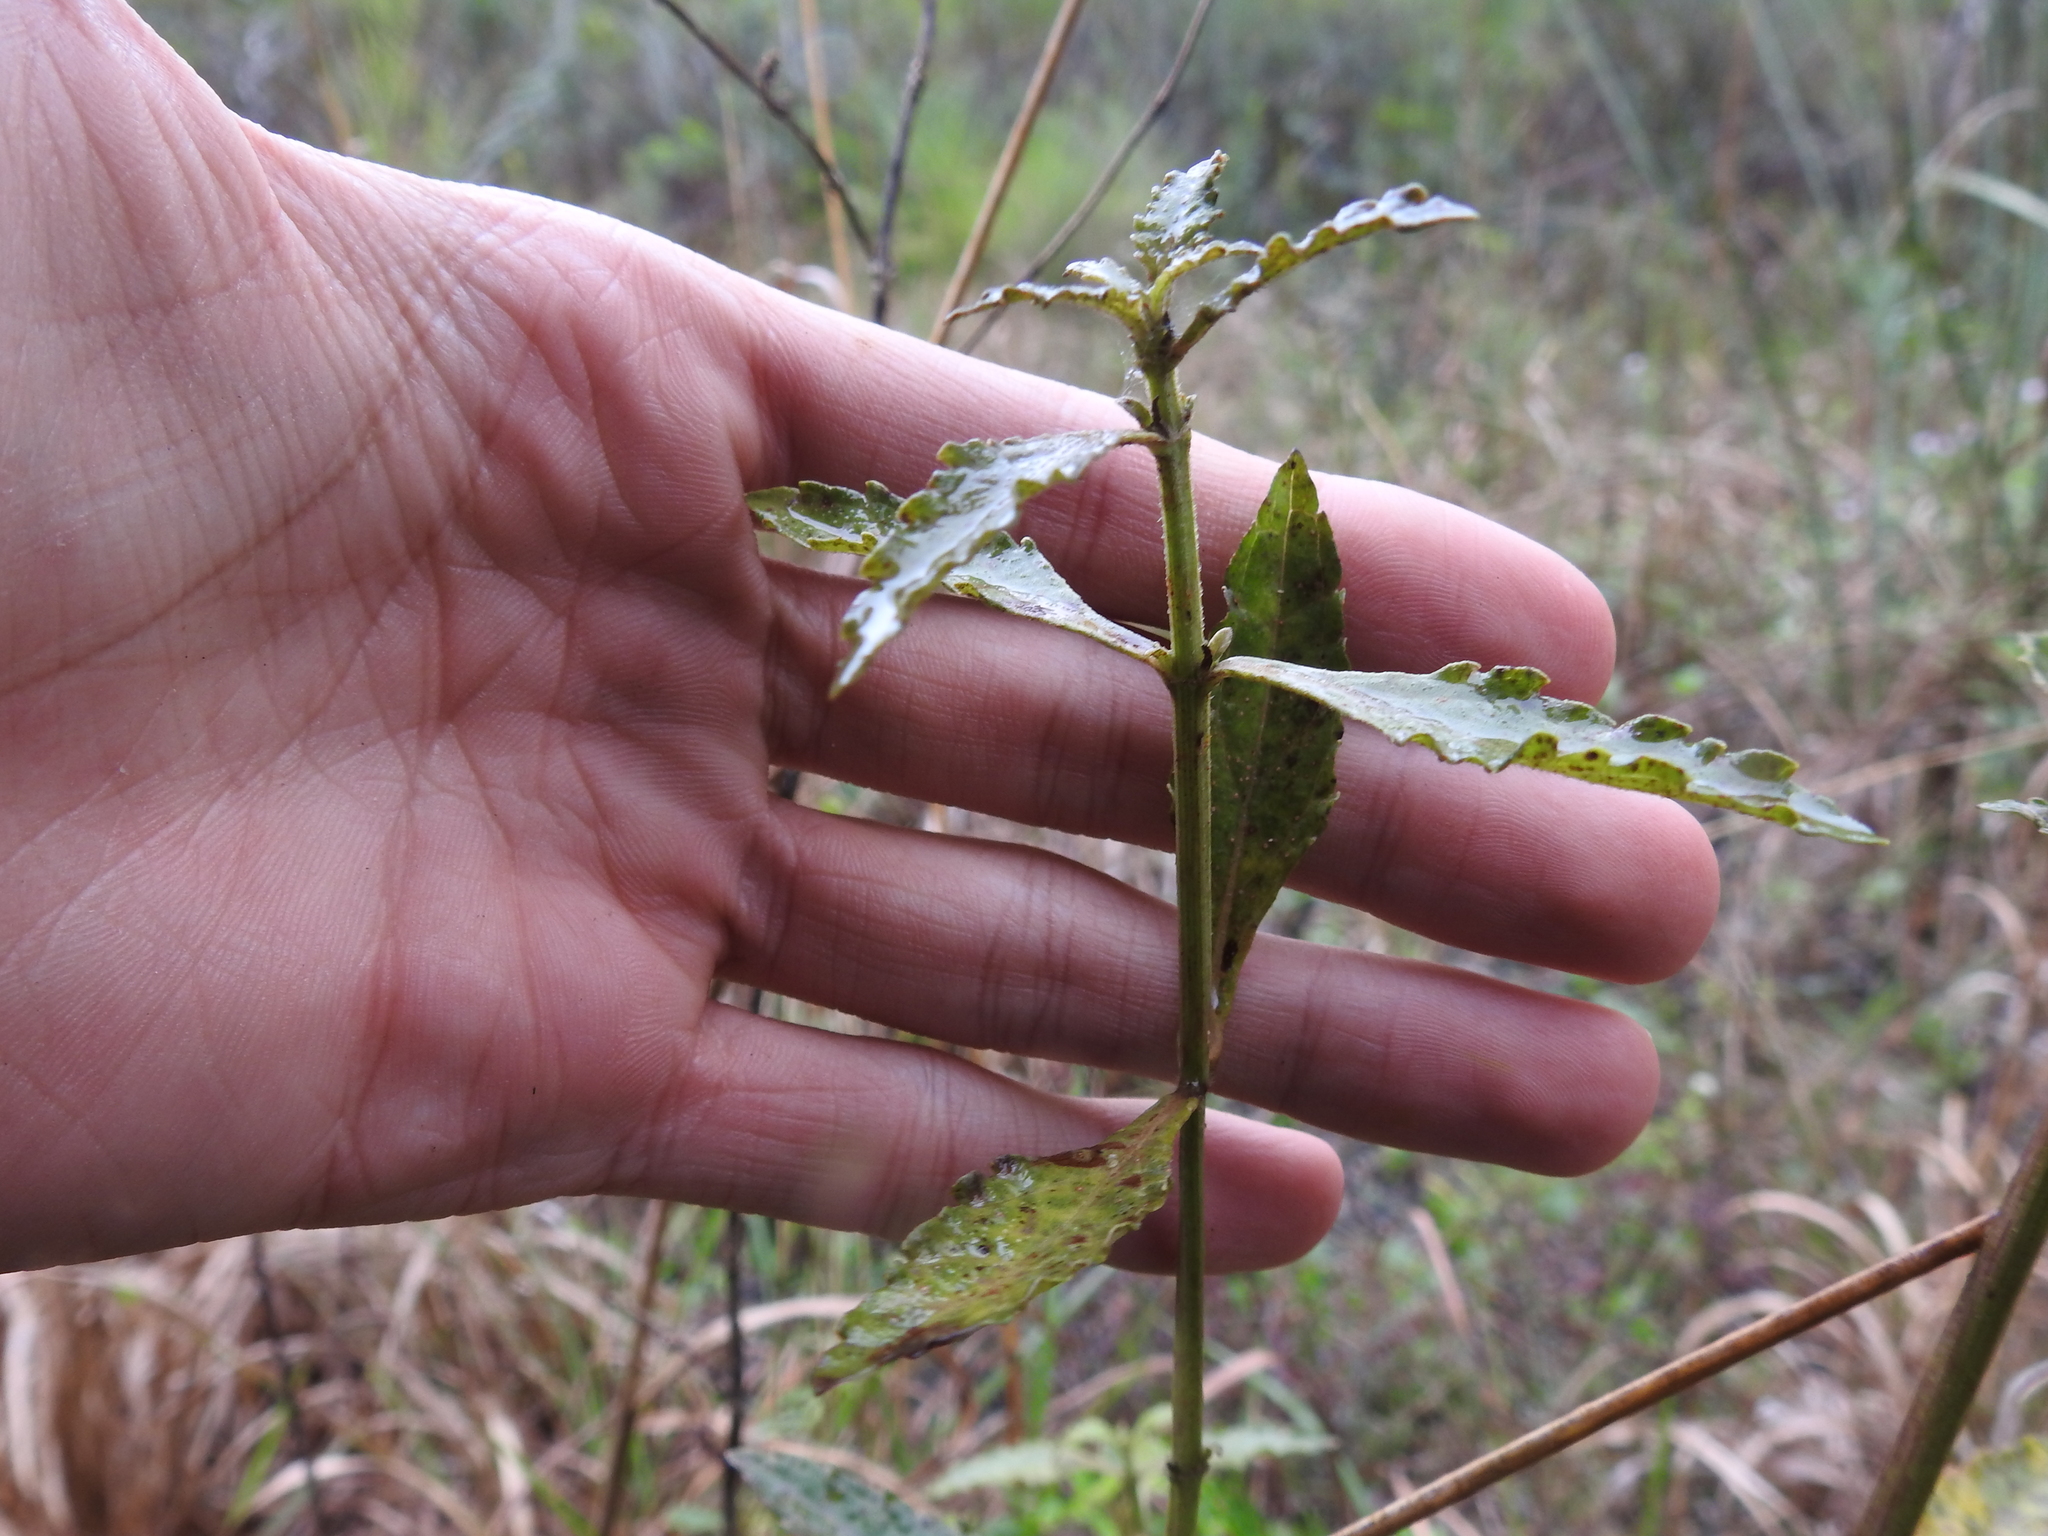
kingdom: Plantae
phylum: Tracheophyta
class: Magnoliopsida
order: Lamiales
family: Lamiaceae
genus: Hyptis
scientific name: Hyptis alata
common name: Cluster bush-mint
